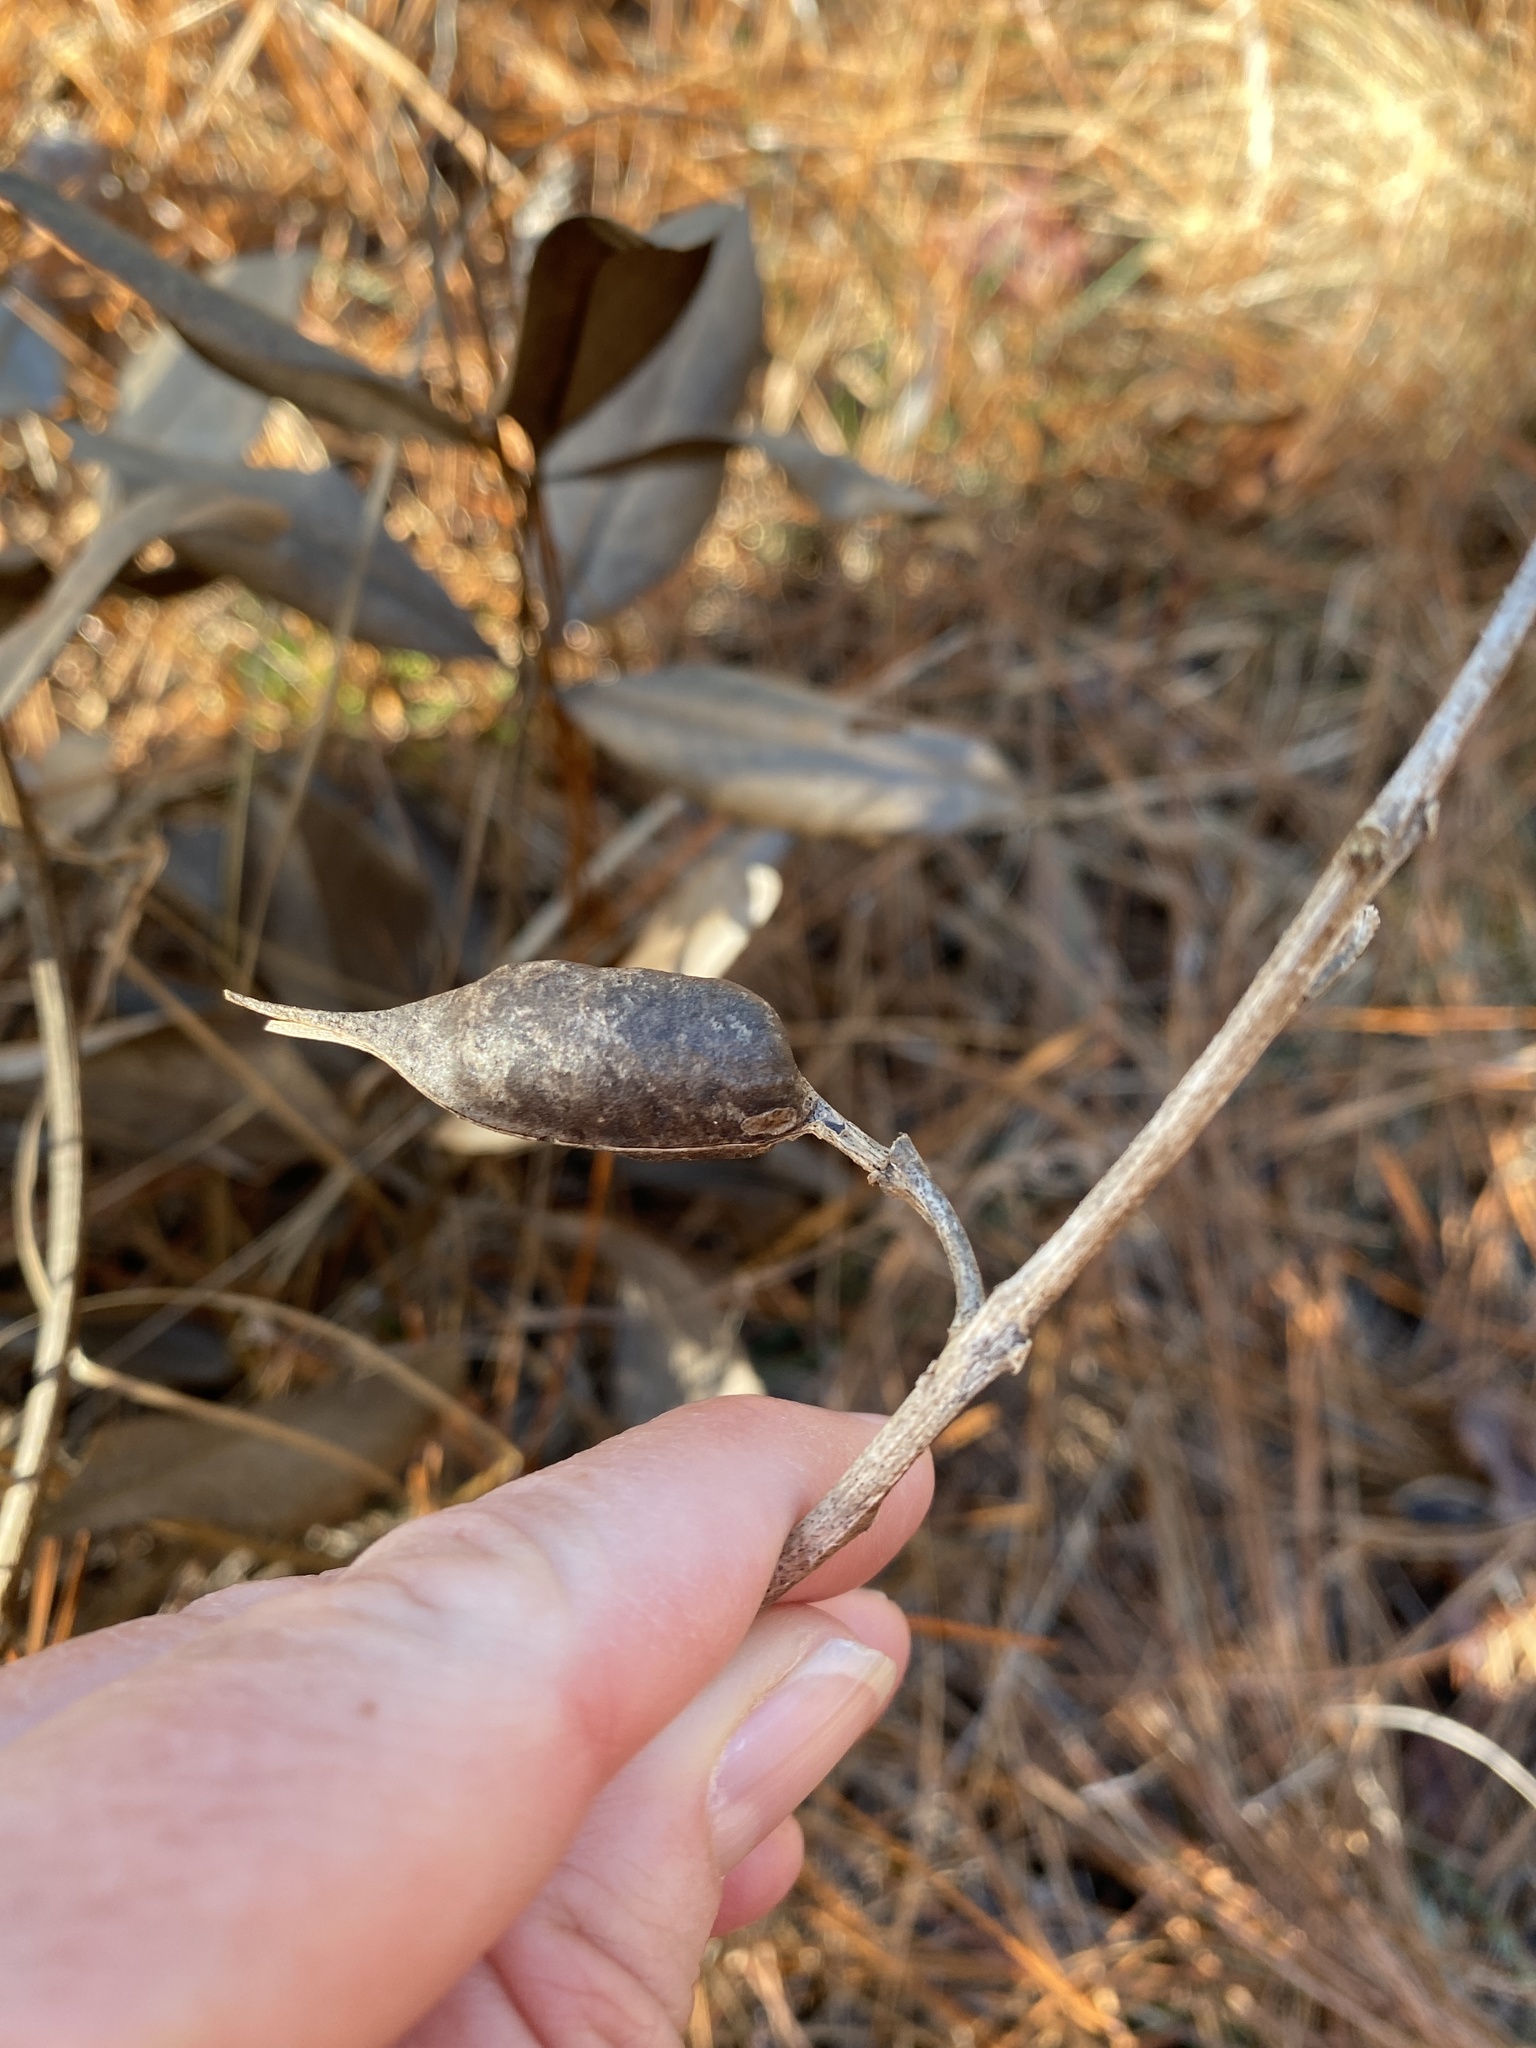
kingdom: Plantae
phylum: Tracheophyta
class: Magnoliopsida
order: Fabales
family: Fabaceae
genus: Baptisia
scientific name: Baptisia cinerea
